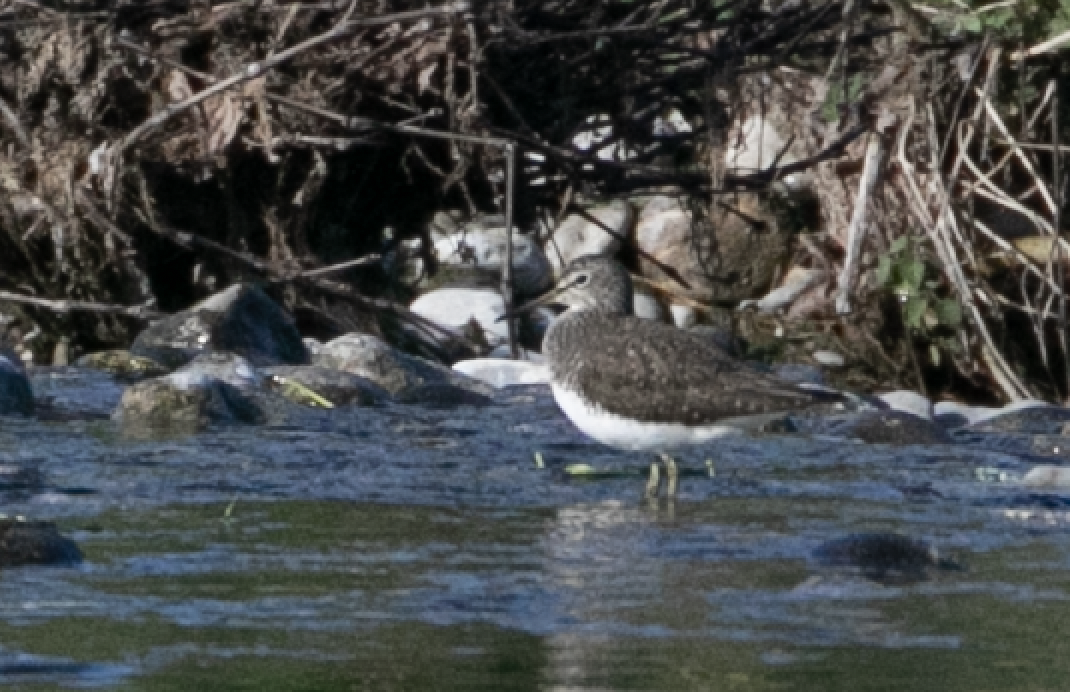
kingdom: Animalia
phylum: Chordata
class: Aves
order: Charadriiformes
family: Scolopacidae
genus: Tringa
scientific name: Tringa ochropus
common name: Green sandpiper
